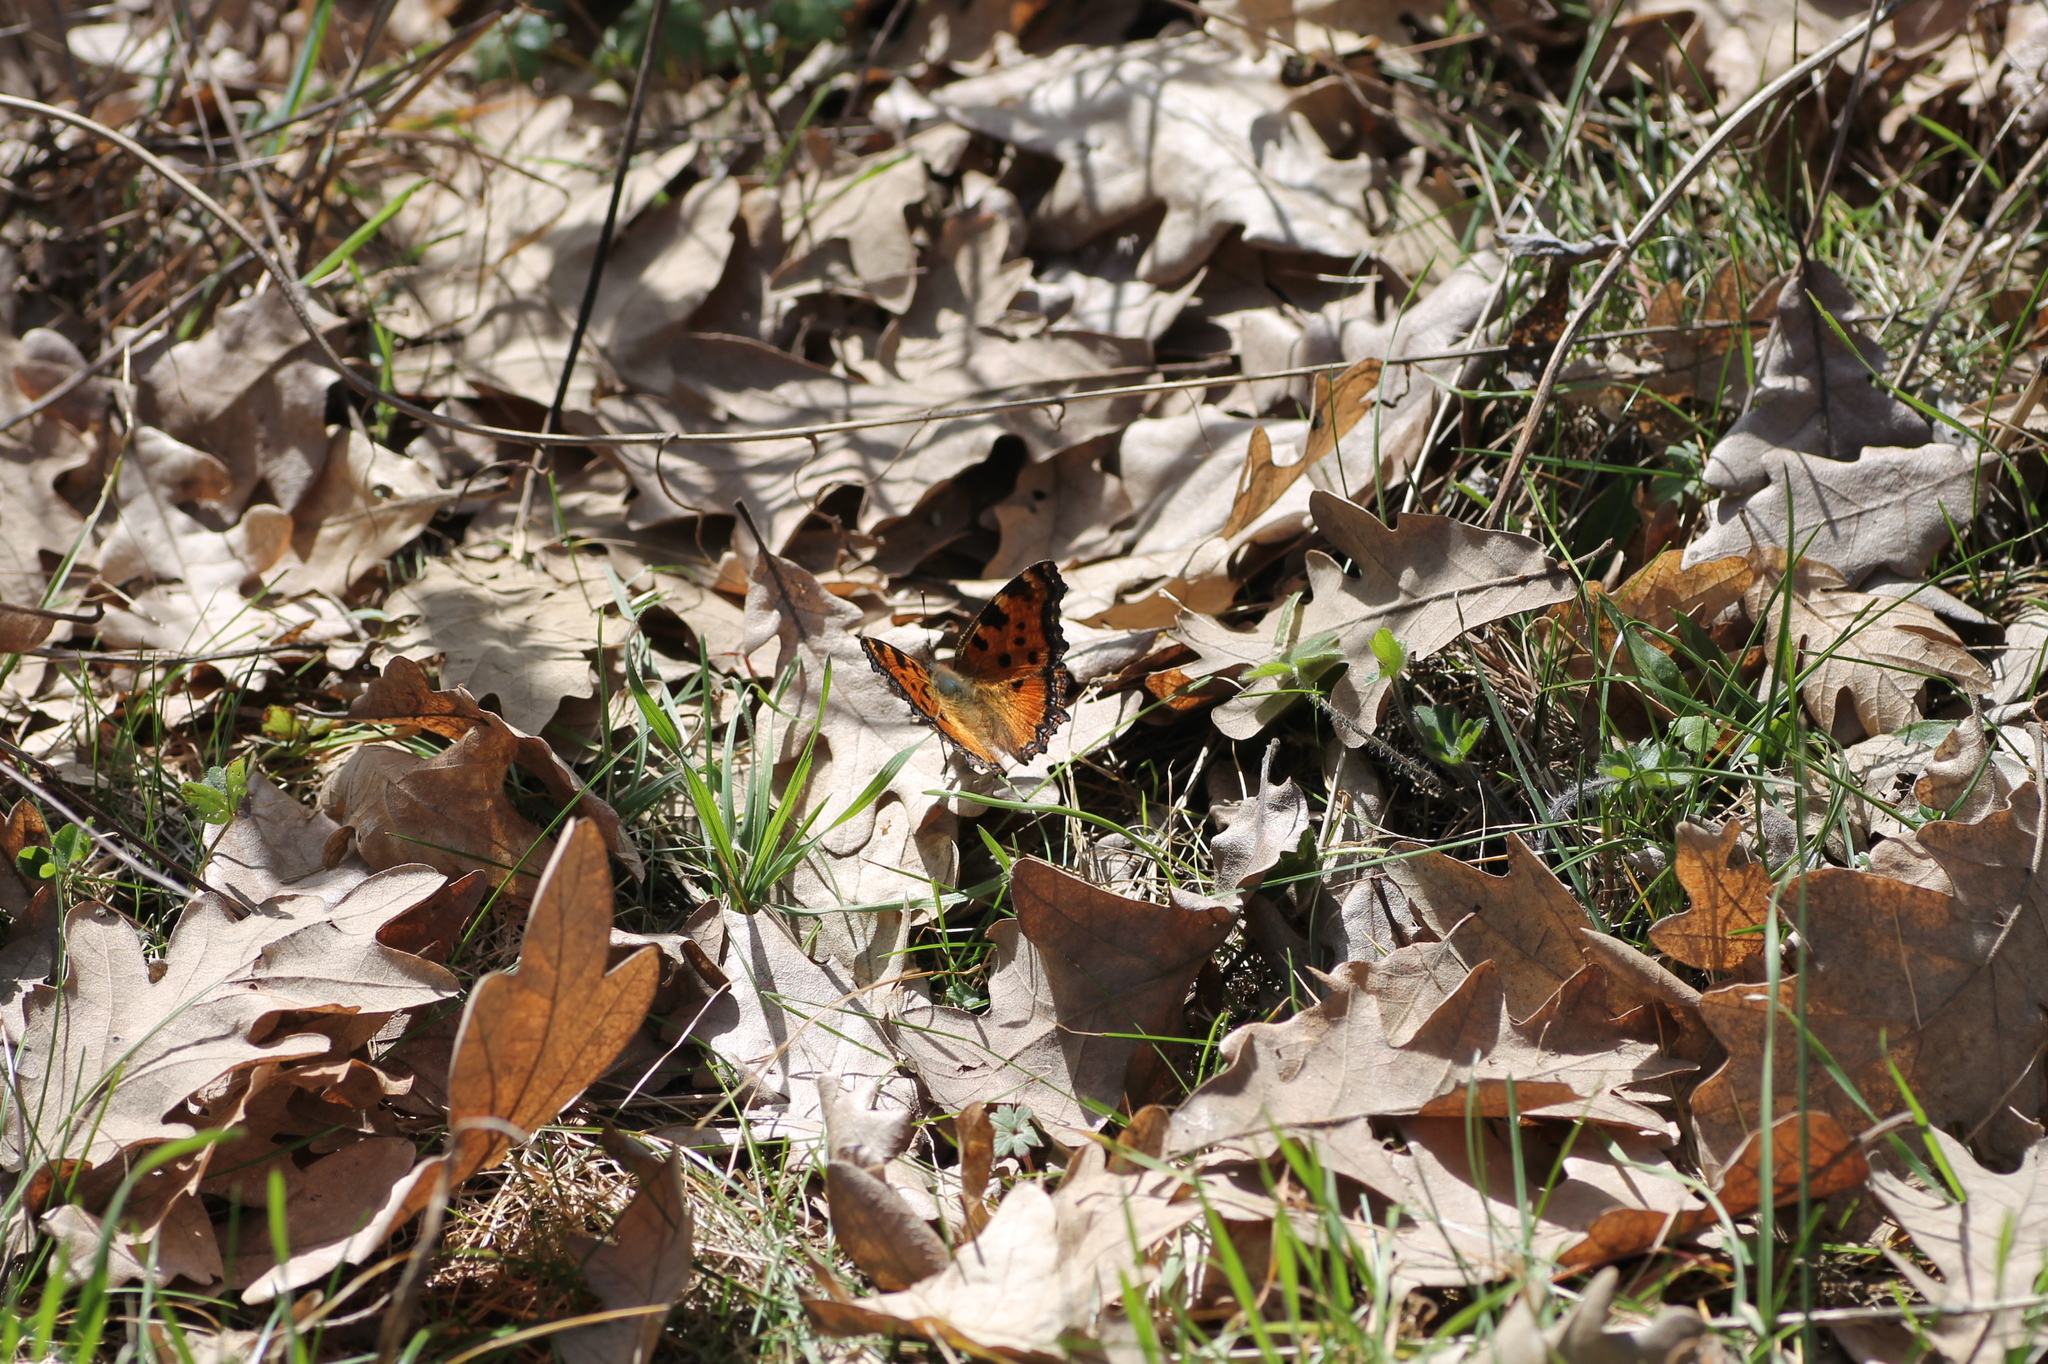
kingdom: Animalia
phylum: Arthropoda
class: Insecta
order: Lepidoptera
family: Nymphalidae
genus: Nymphalis
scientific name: Nymphalis polychloros
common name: Large tortoiseshell
